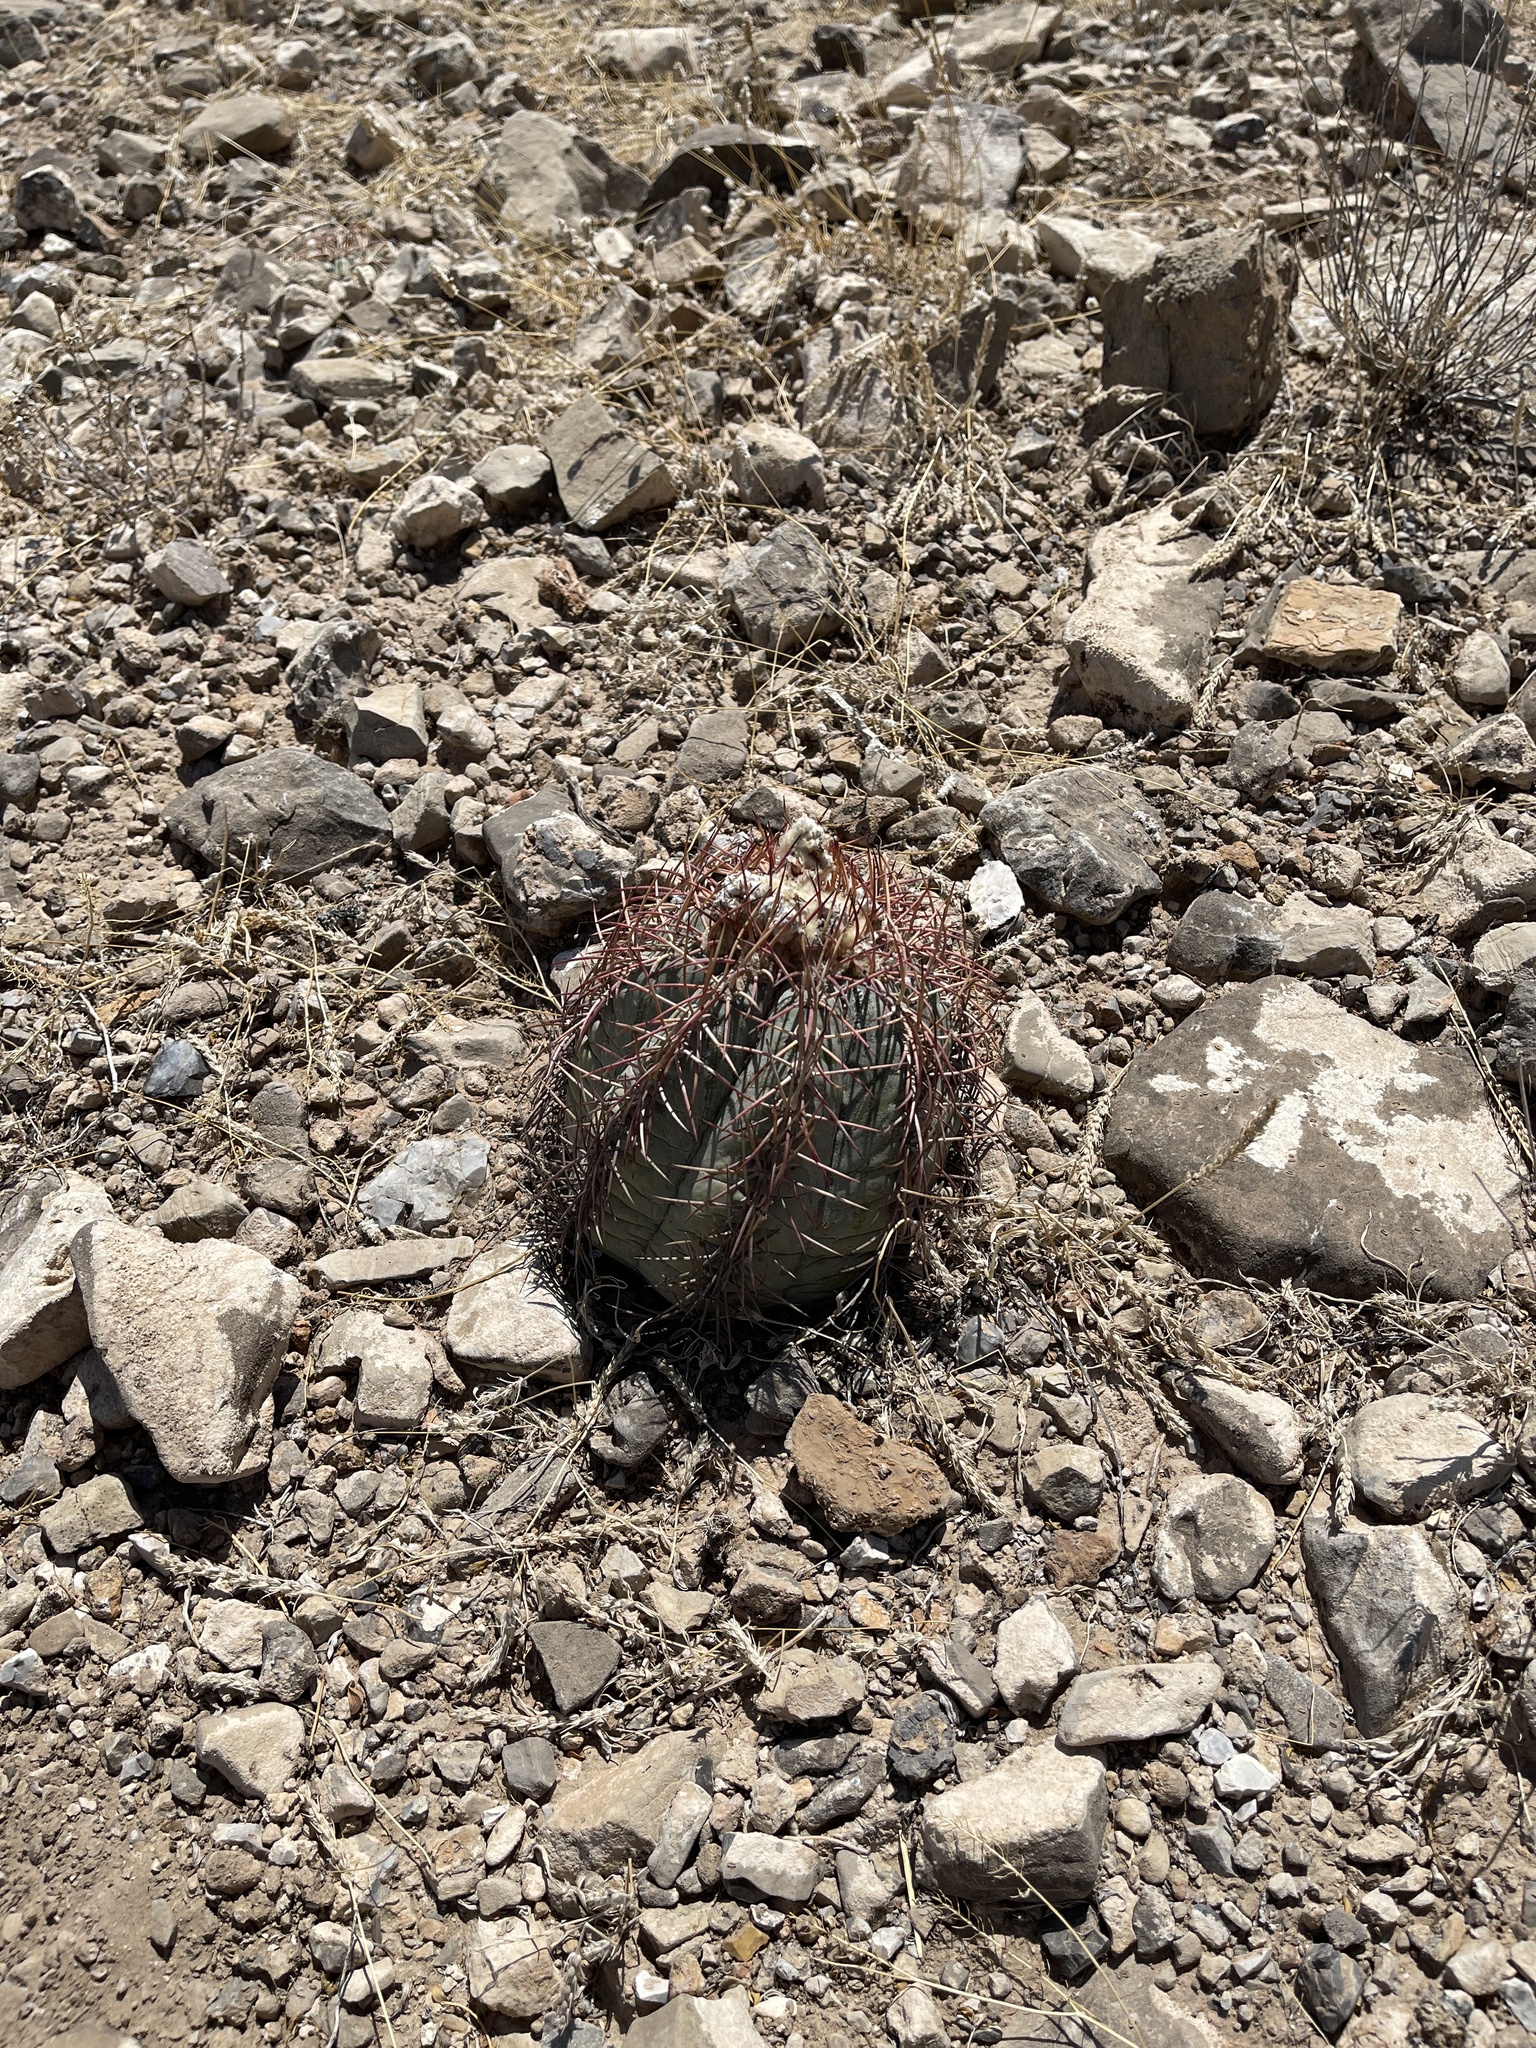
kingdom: Plantae
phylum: Tracheophyta
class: Magnoliopsida
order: Caryophyllales
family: Cactaceae
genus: Echinocactus
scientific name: Echinocactus horizonthalonius
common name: Devilshead
